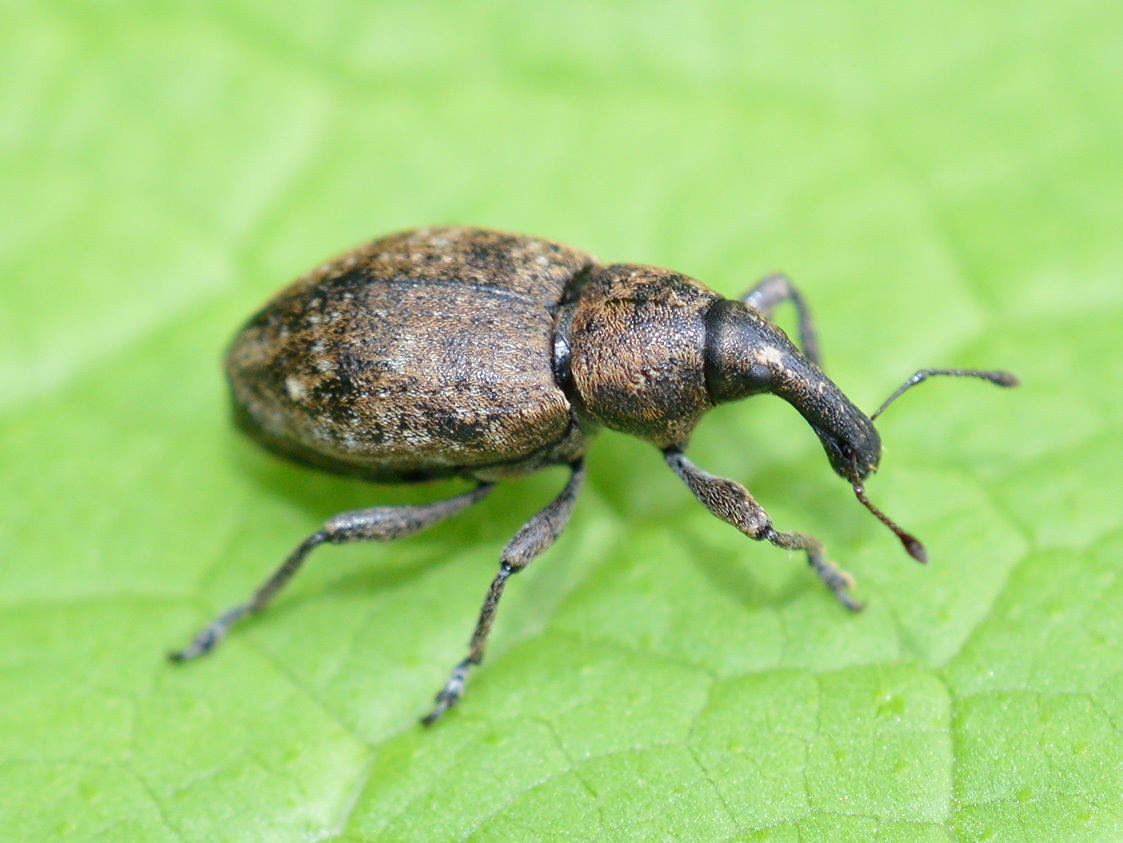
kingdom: Animalia
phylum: Arthropoda
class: Insecta
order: Coleoptera
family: Curculionidae
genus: Lepyrus
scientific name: Lepyrus capucinus
